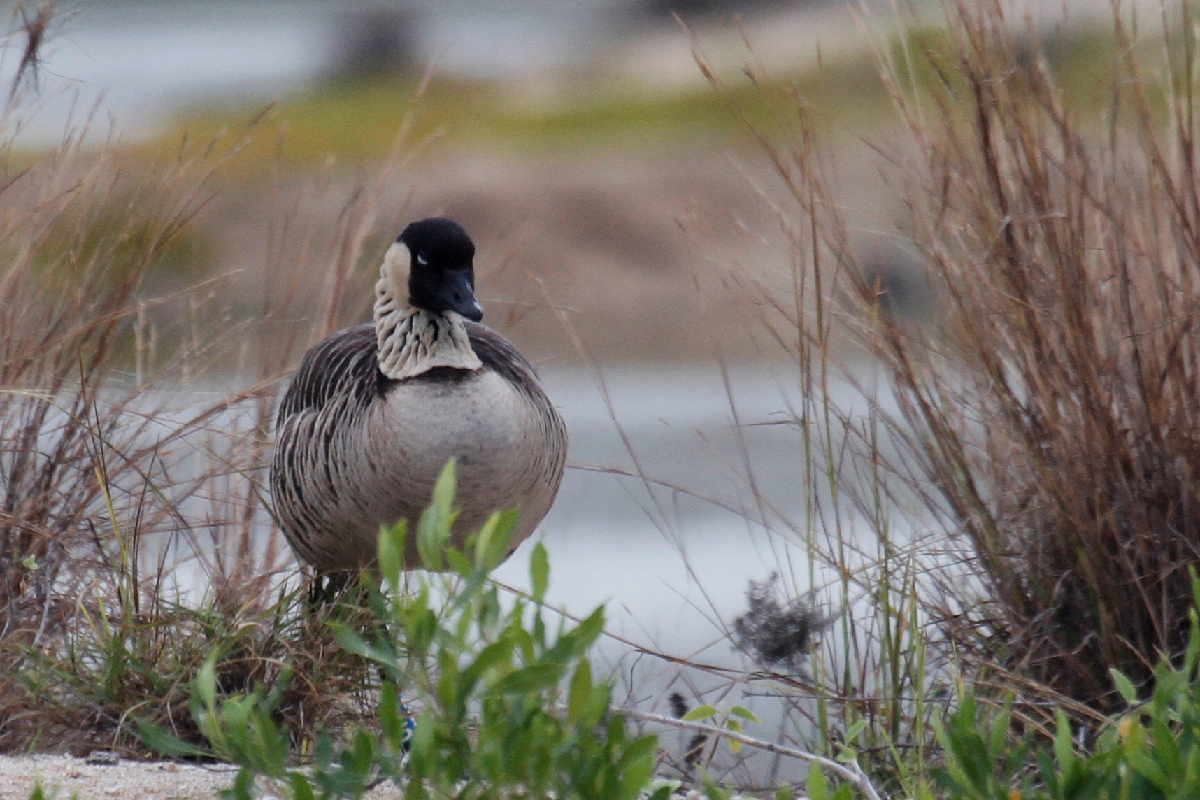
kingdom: Animalia
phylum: Chordata
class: Aves
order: Anseriformes
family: Anatidae
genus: Branta
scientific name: Branta sandvicensis
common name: Nene
